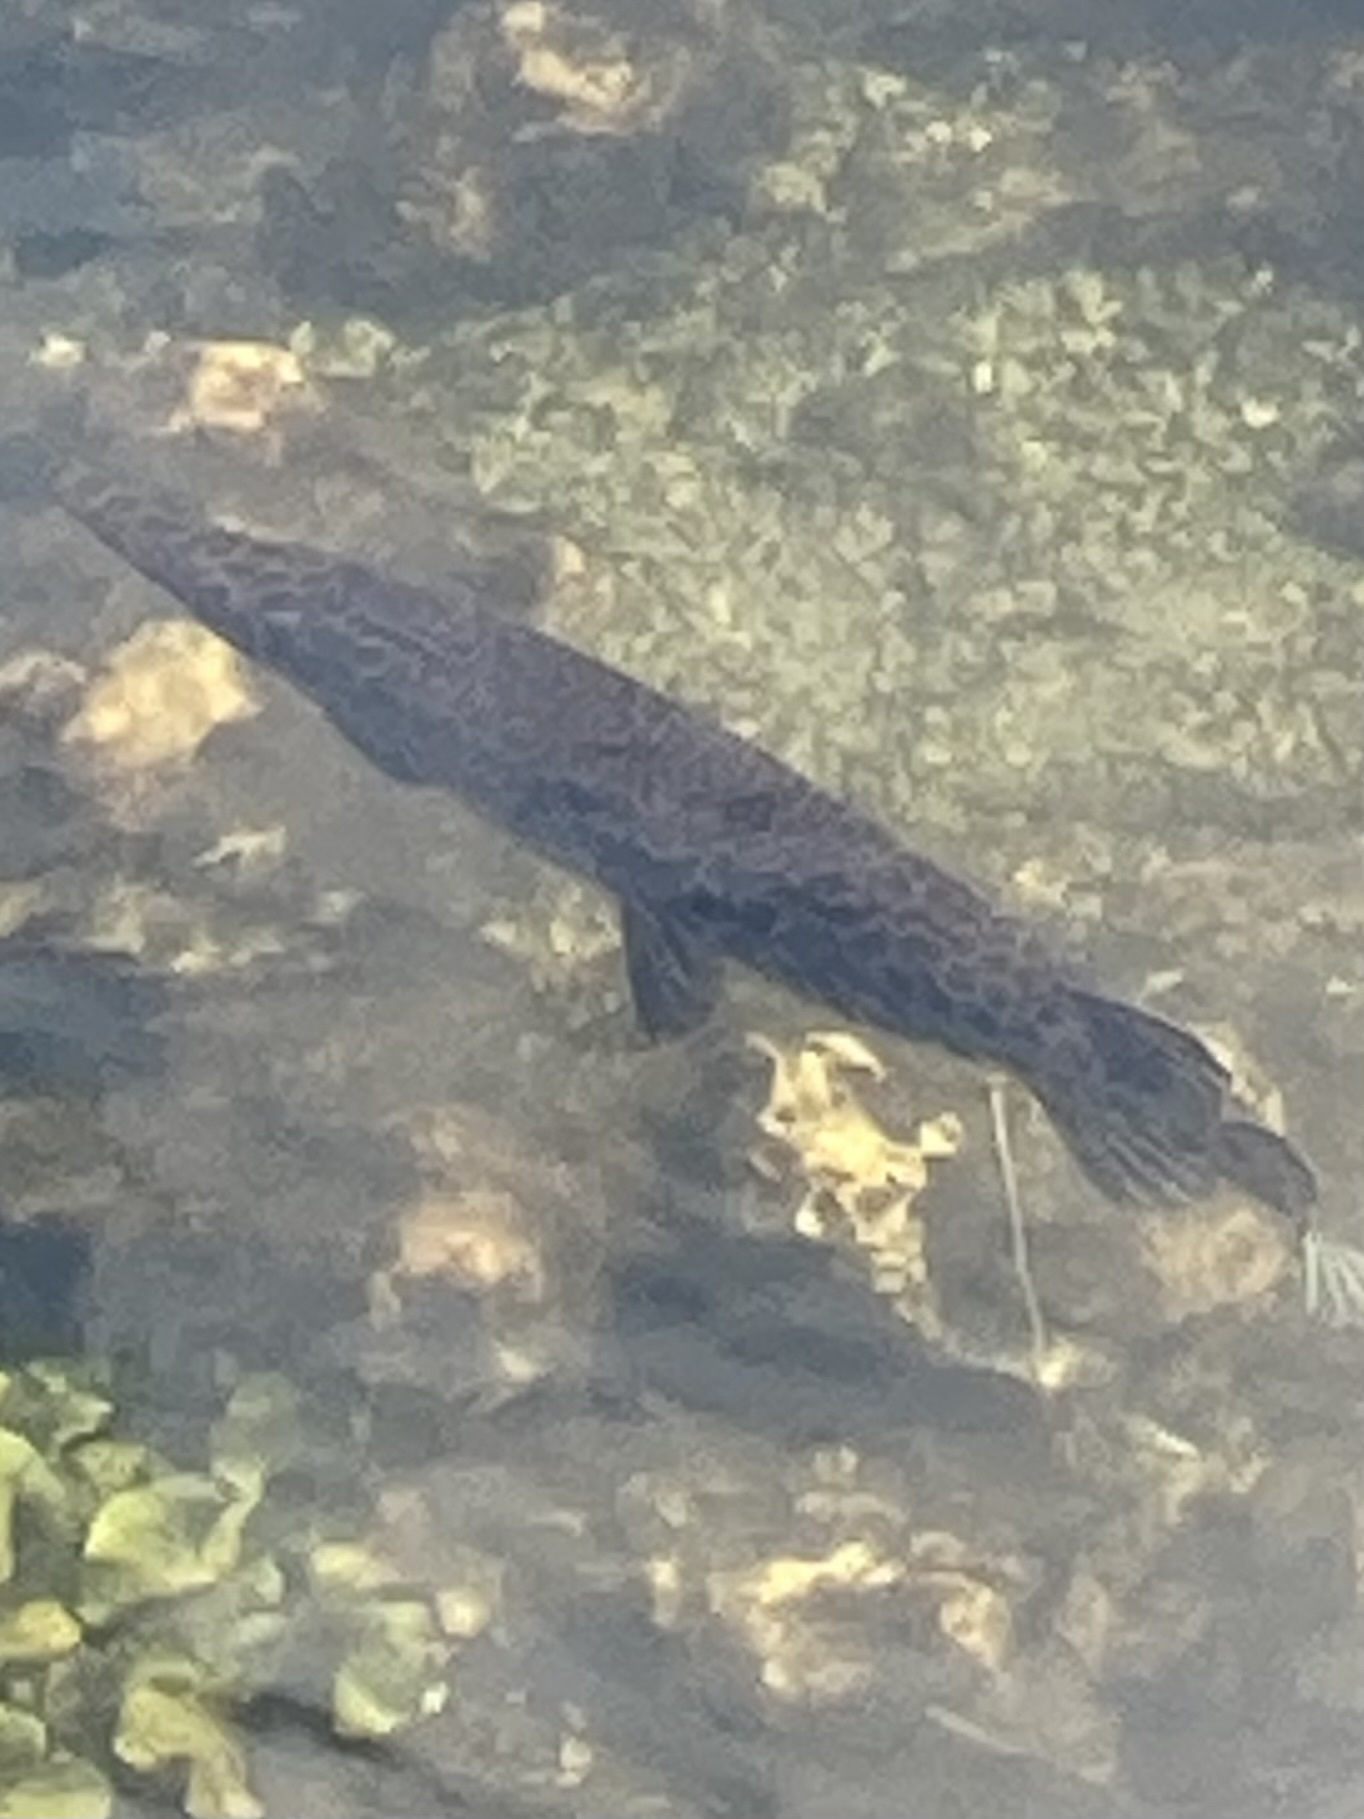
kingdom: Animalia
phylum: Chordata
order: Lepisosteiformes
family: Lepisosteidae
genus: Lepisosteus
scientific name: Lepisosteus platyrhincus
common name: Florida gar
